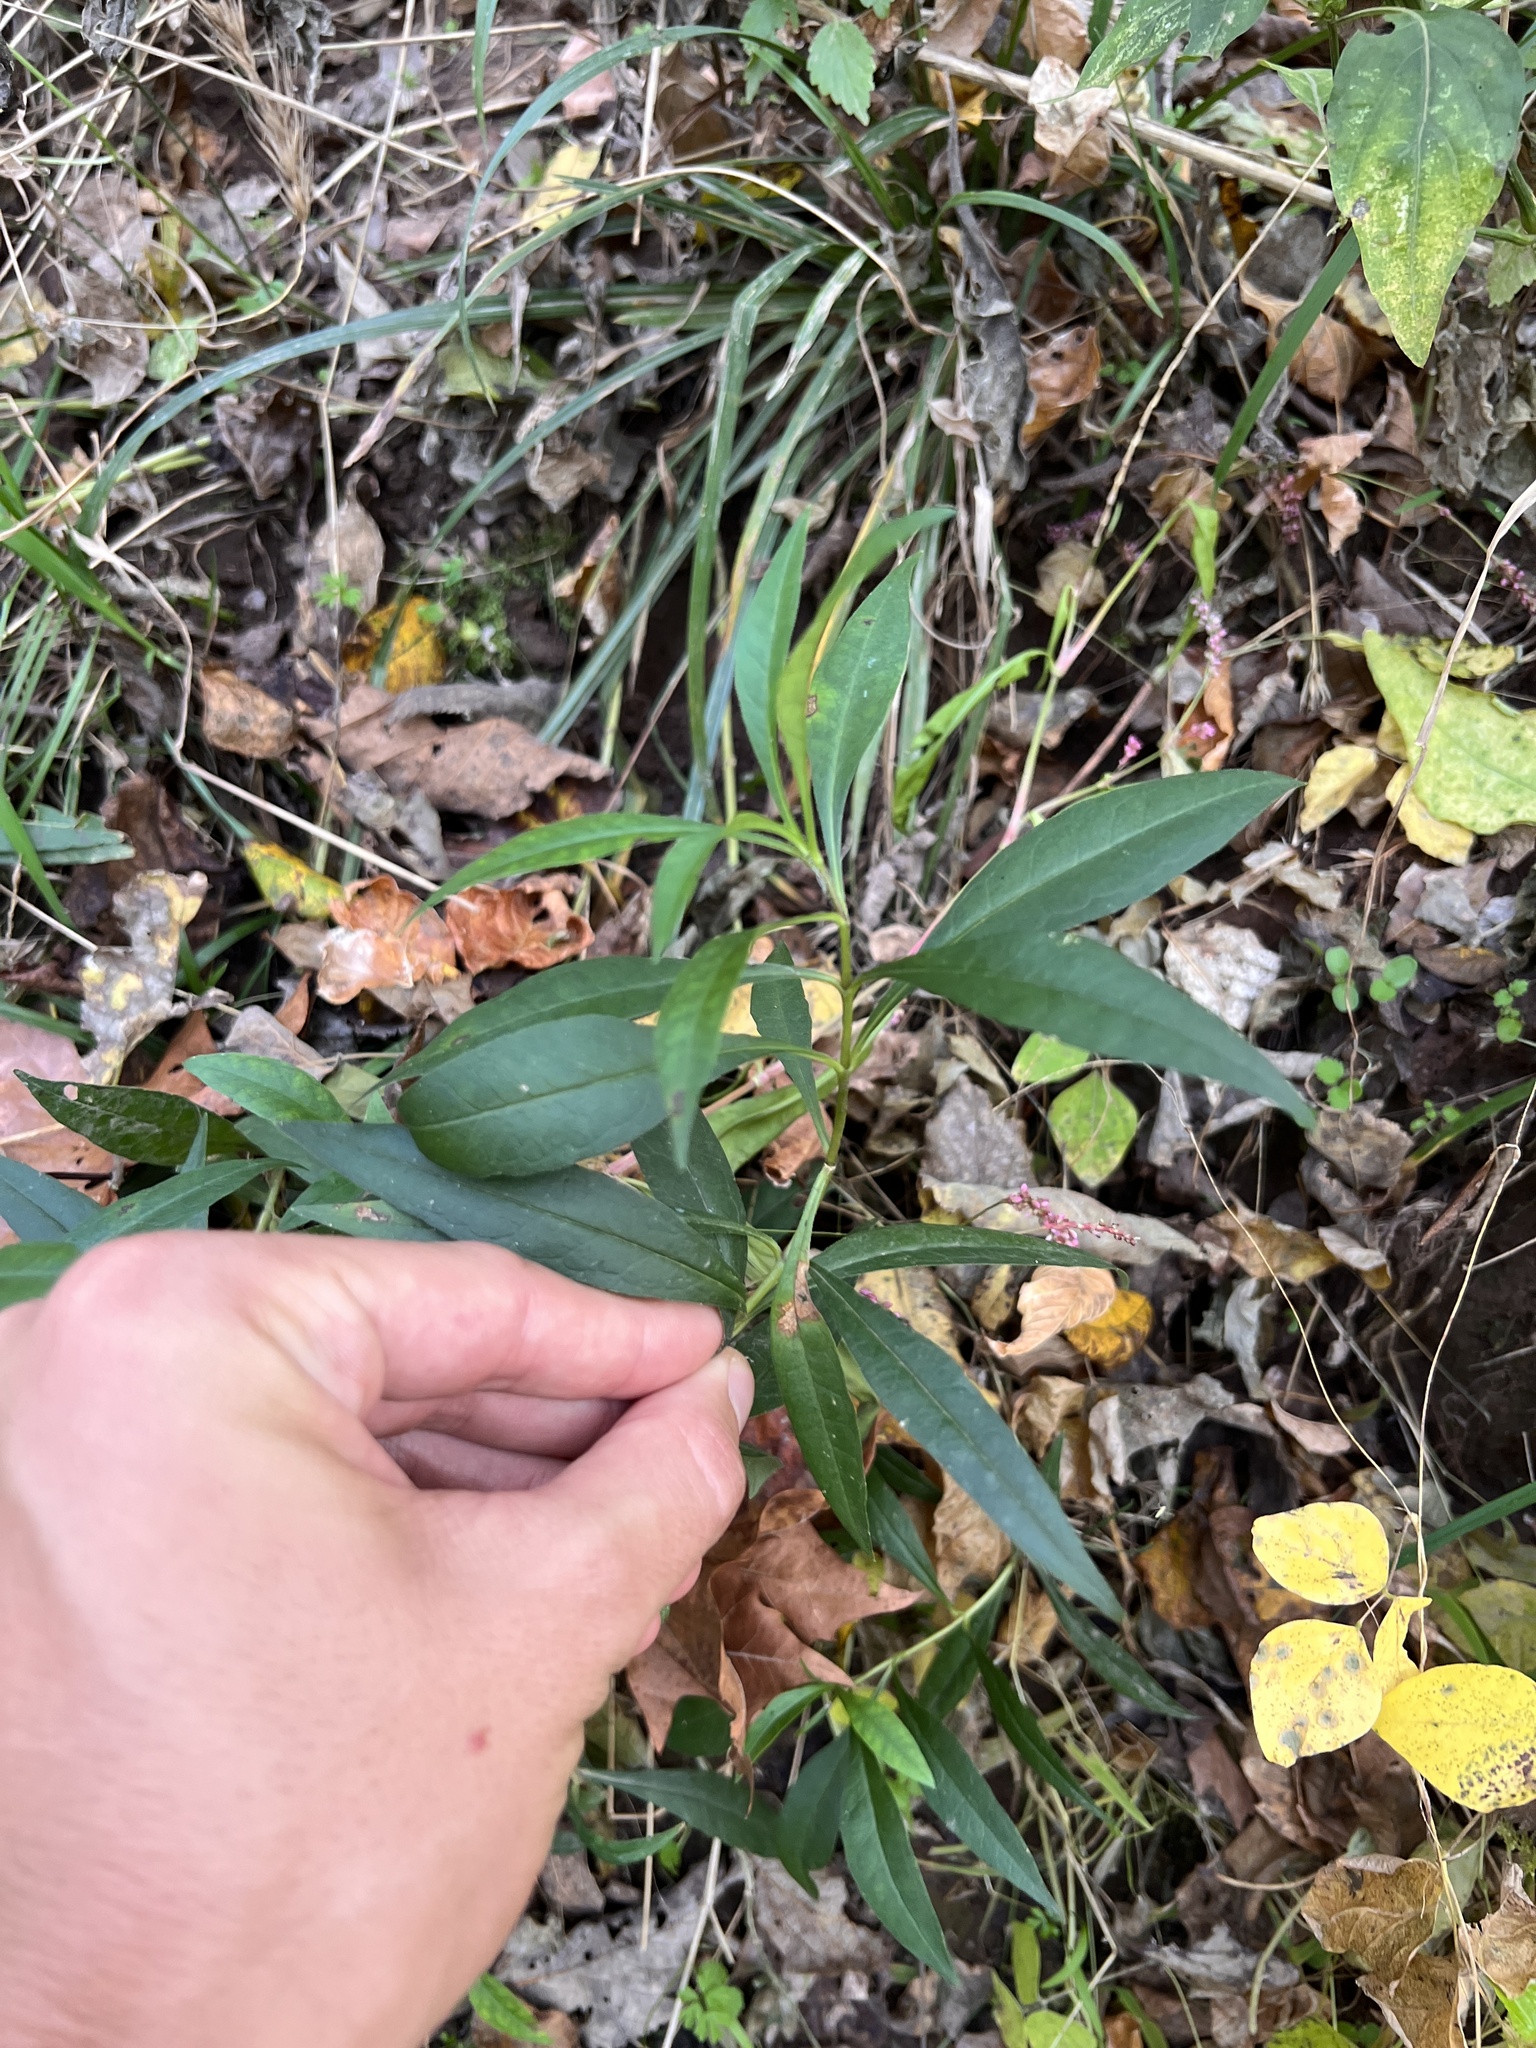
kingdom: Plantae
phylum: Tracheophyta
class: Magnoliopsida
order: Ericales
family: Polemoniaceae
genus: Phlox
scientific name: Phlox paniculata
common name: Fall phlox
